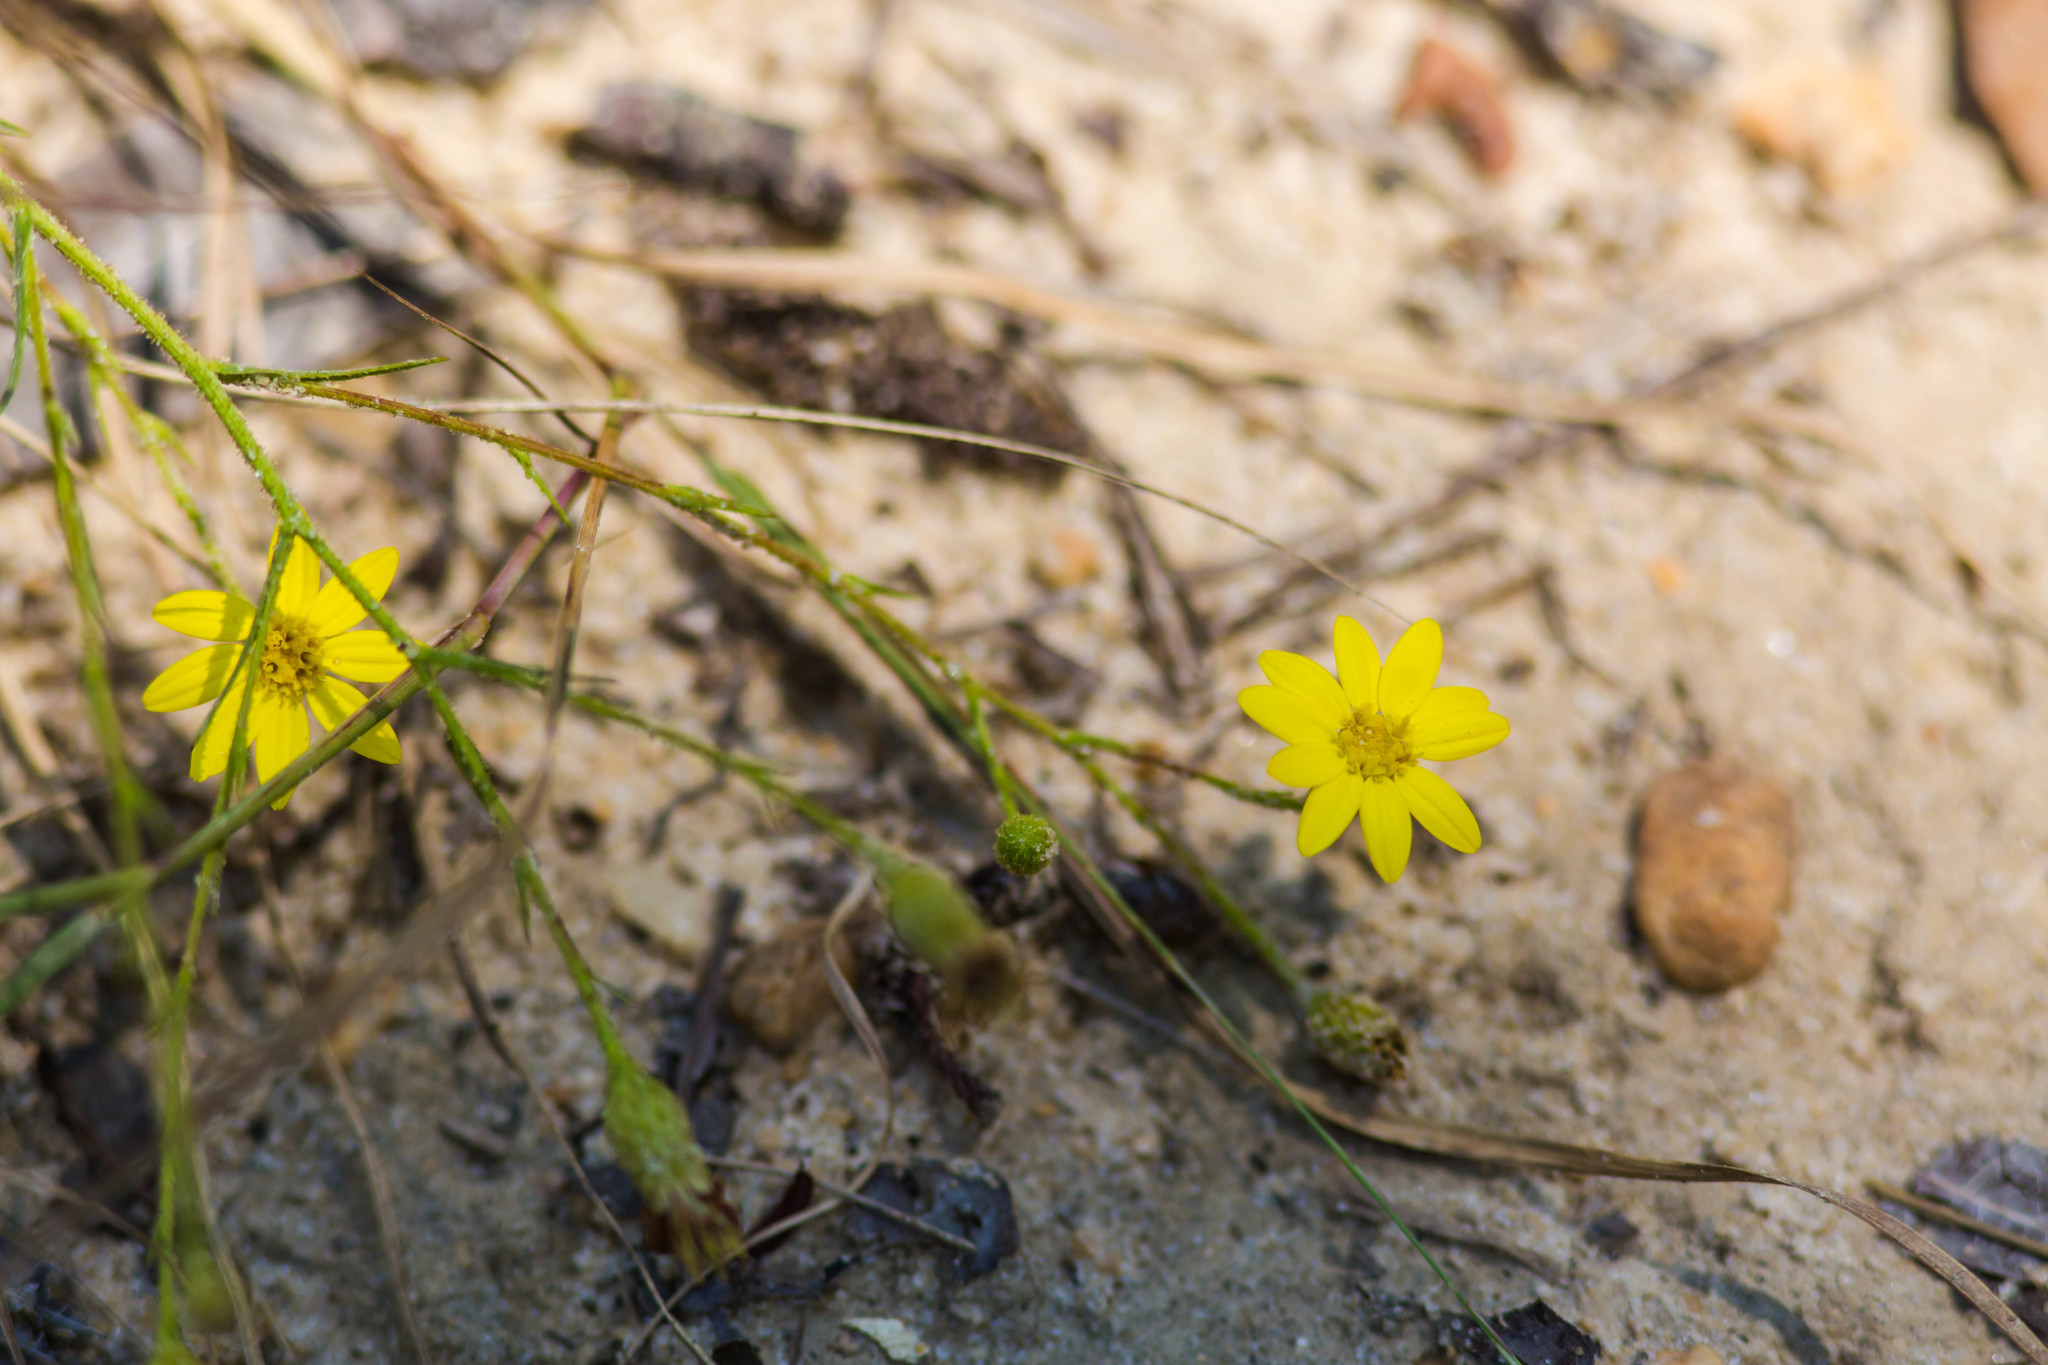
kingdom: Plantae
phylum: Tracheophyta
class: Magnoliopsida
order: Asterales
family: Asteraceae
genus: Pityopsis
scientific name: Pityopsis aspera
